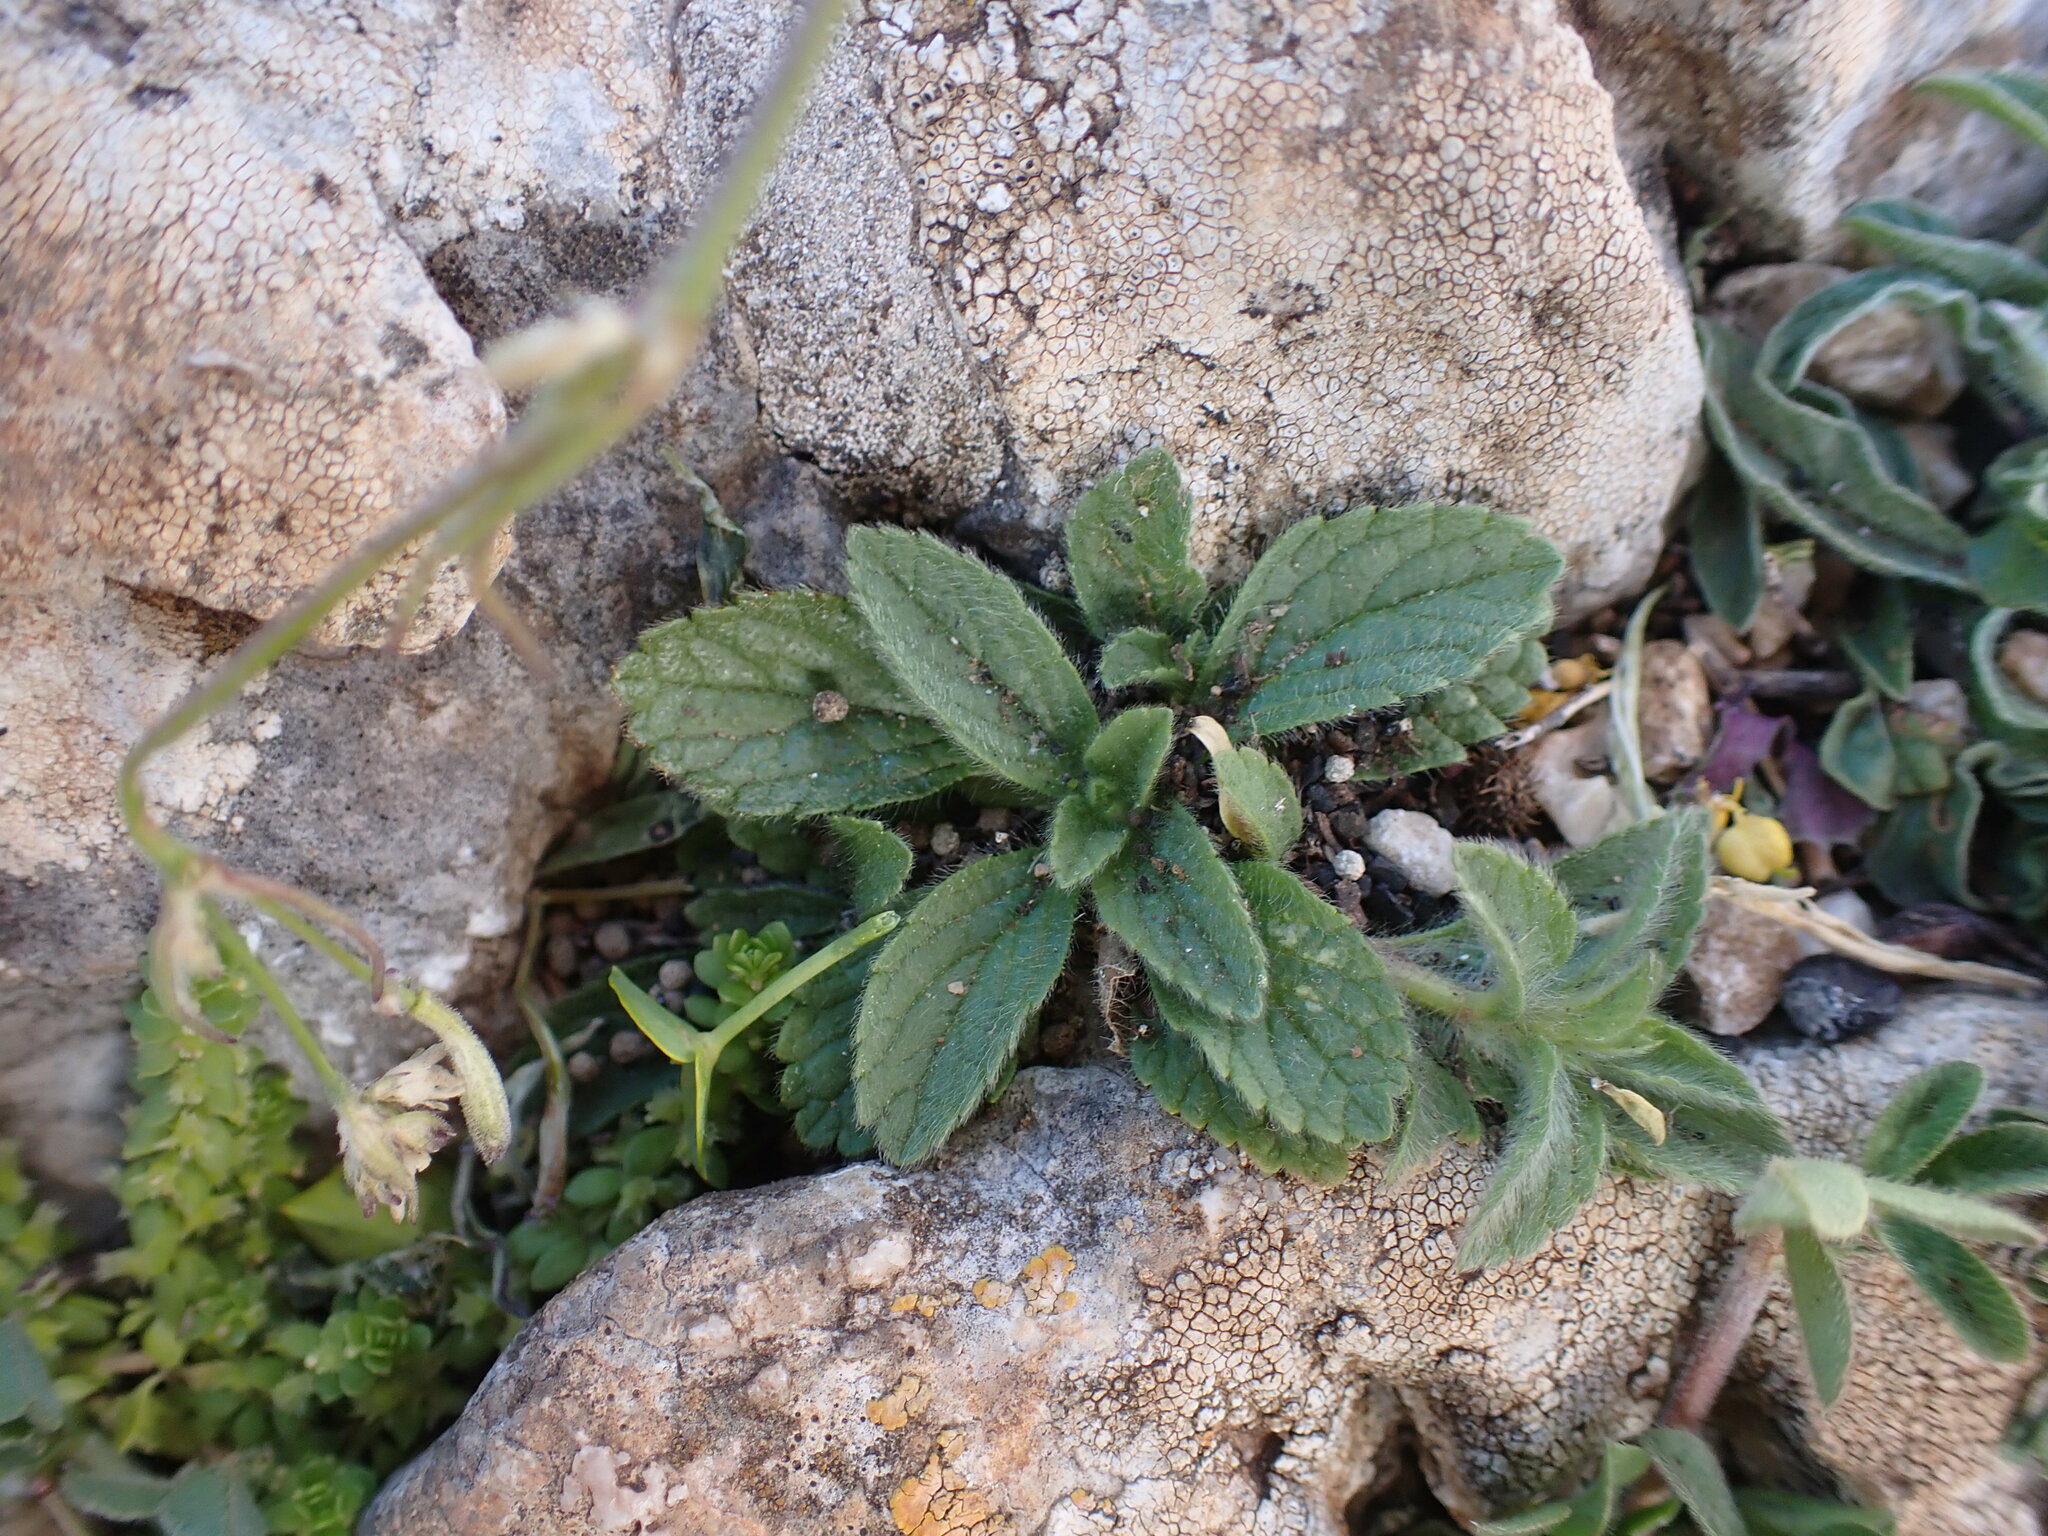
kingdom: Plantae
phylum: Tracheophyta
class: Magnoliopsida
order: Lamiales
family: Lamiaceae
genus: Sideritis
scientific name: Sideritis romana
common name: Simplebeak ironwort
